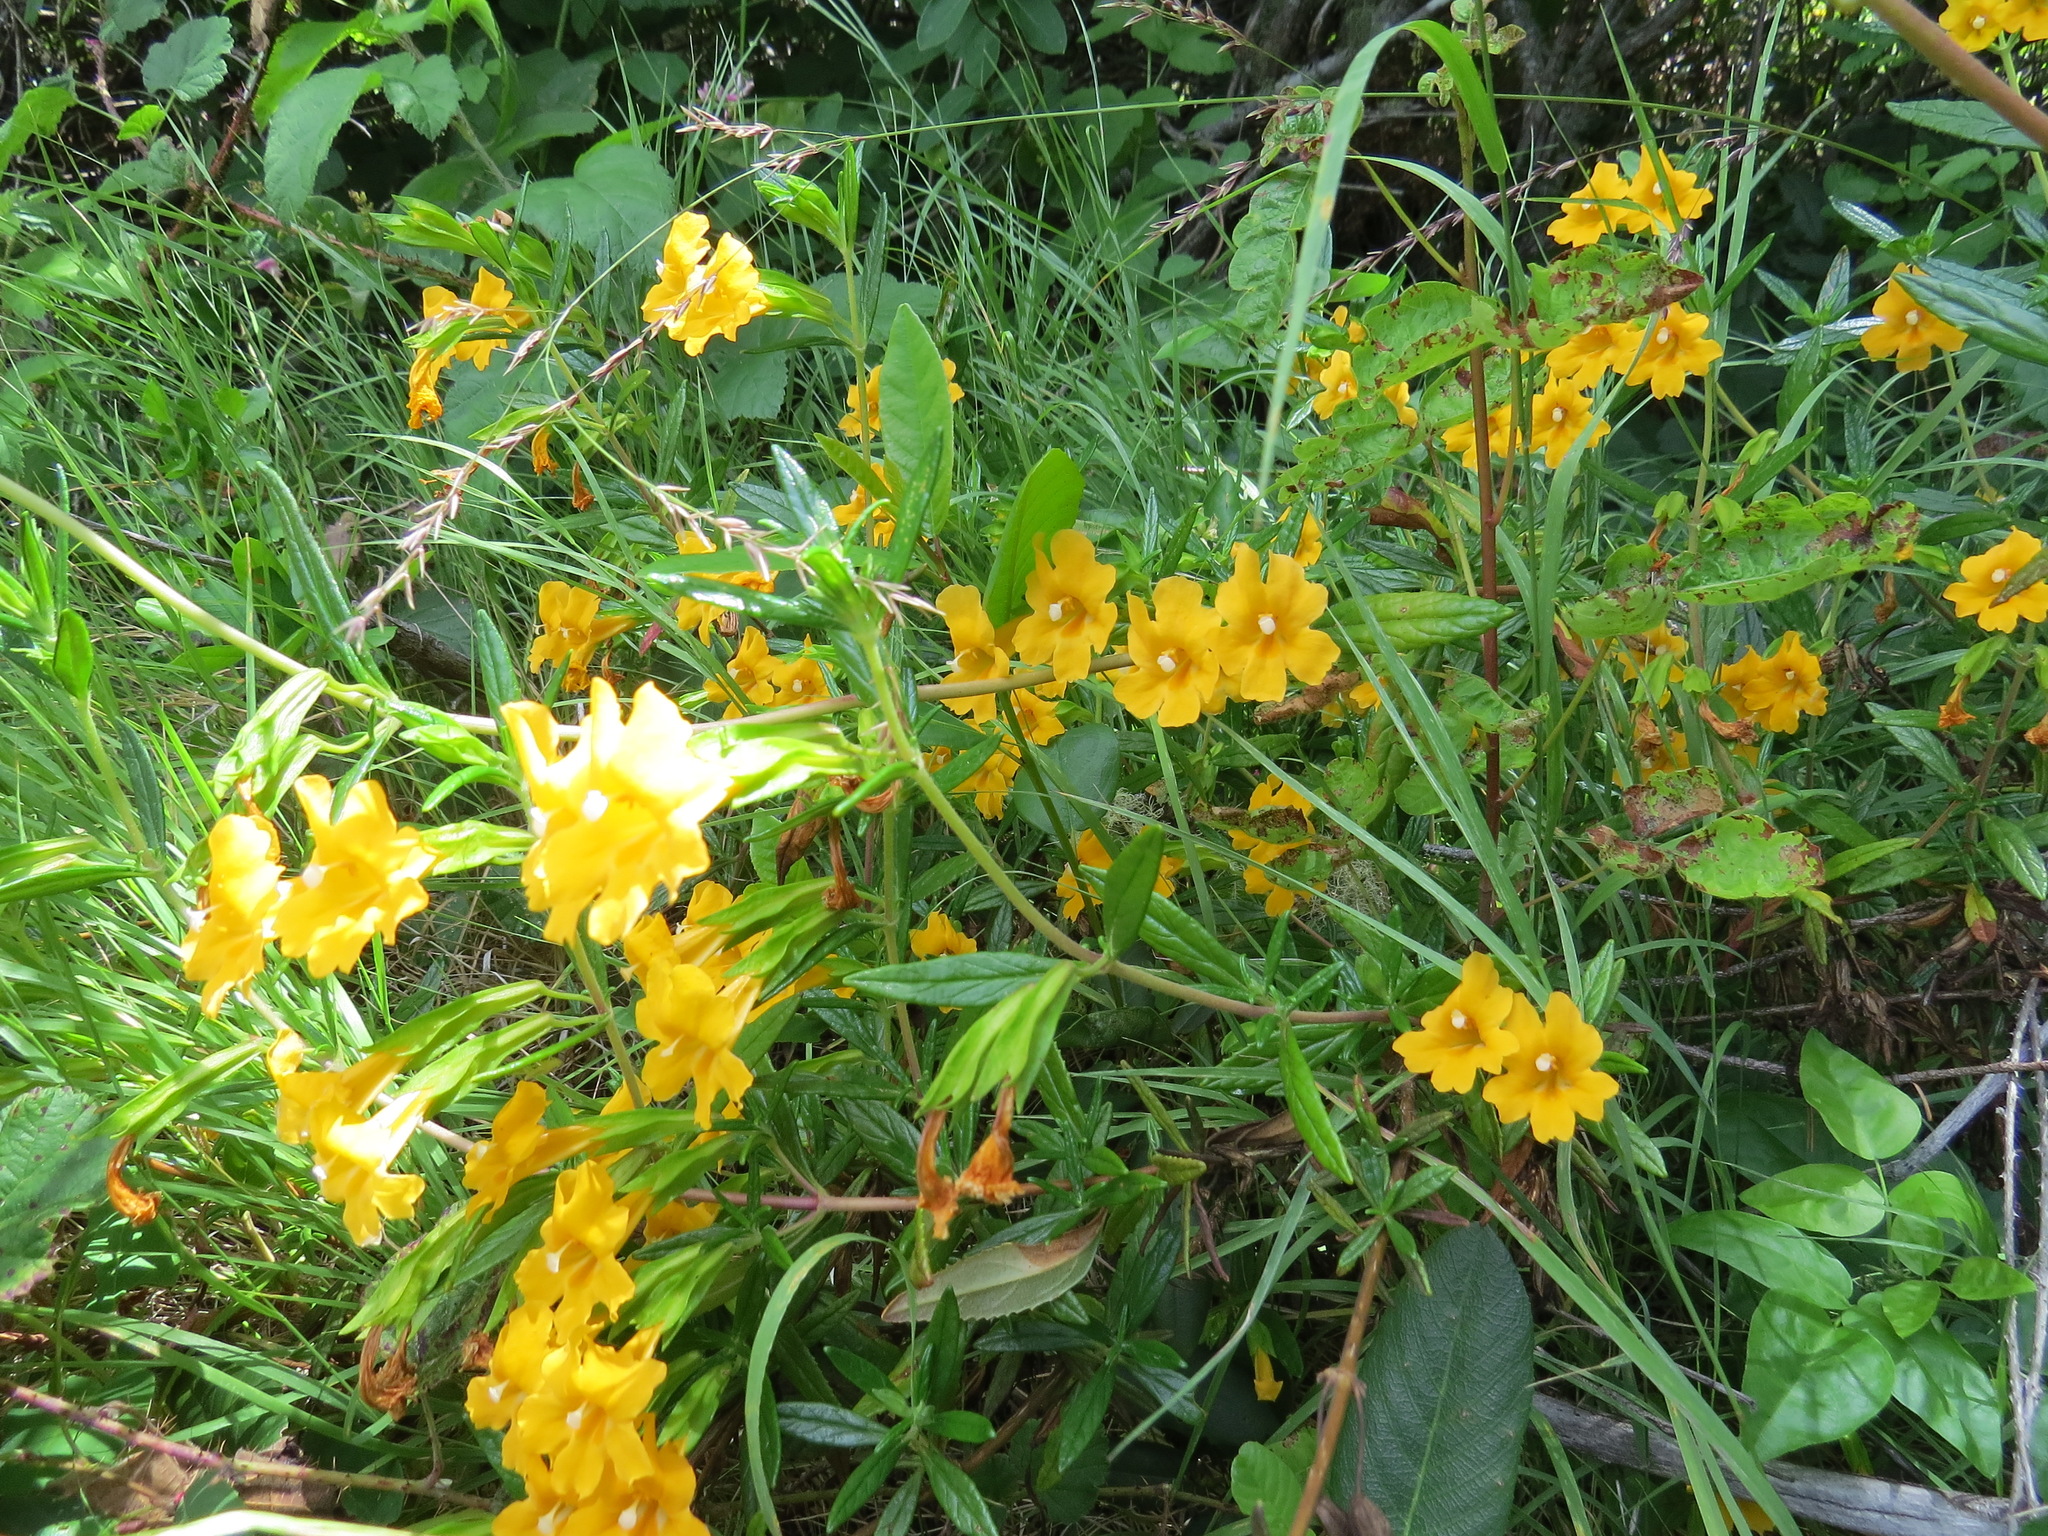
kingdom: Plantae
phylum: Tracheophyta
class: Magnoliopsida
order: Lamiales
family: Phrymaceae
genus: Diplacus
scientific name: Diplacus aurantiacus
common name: Bush monkey-flower
